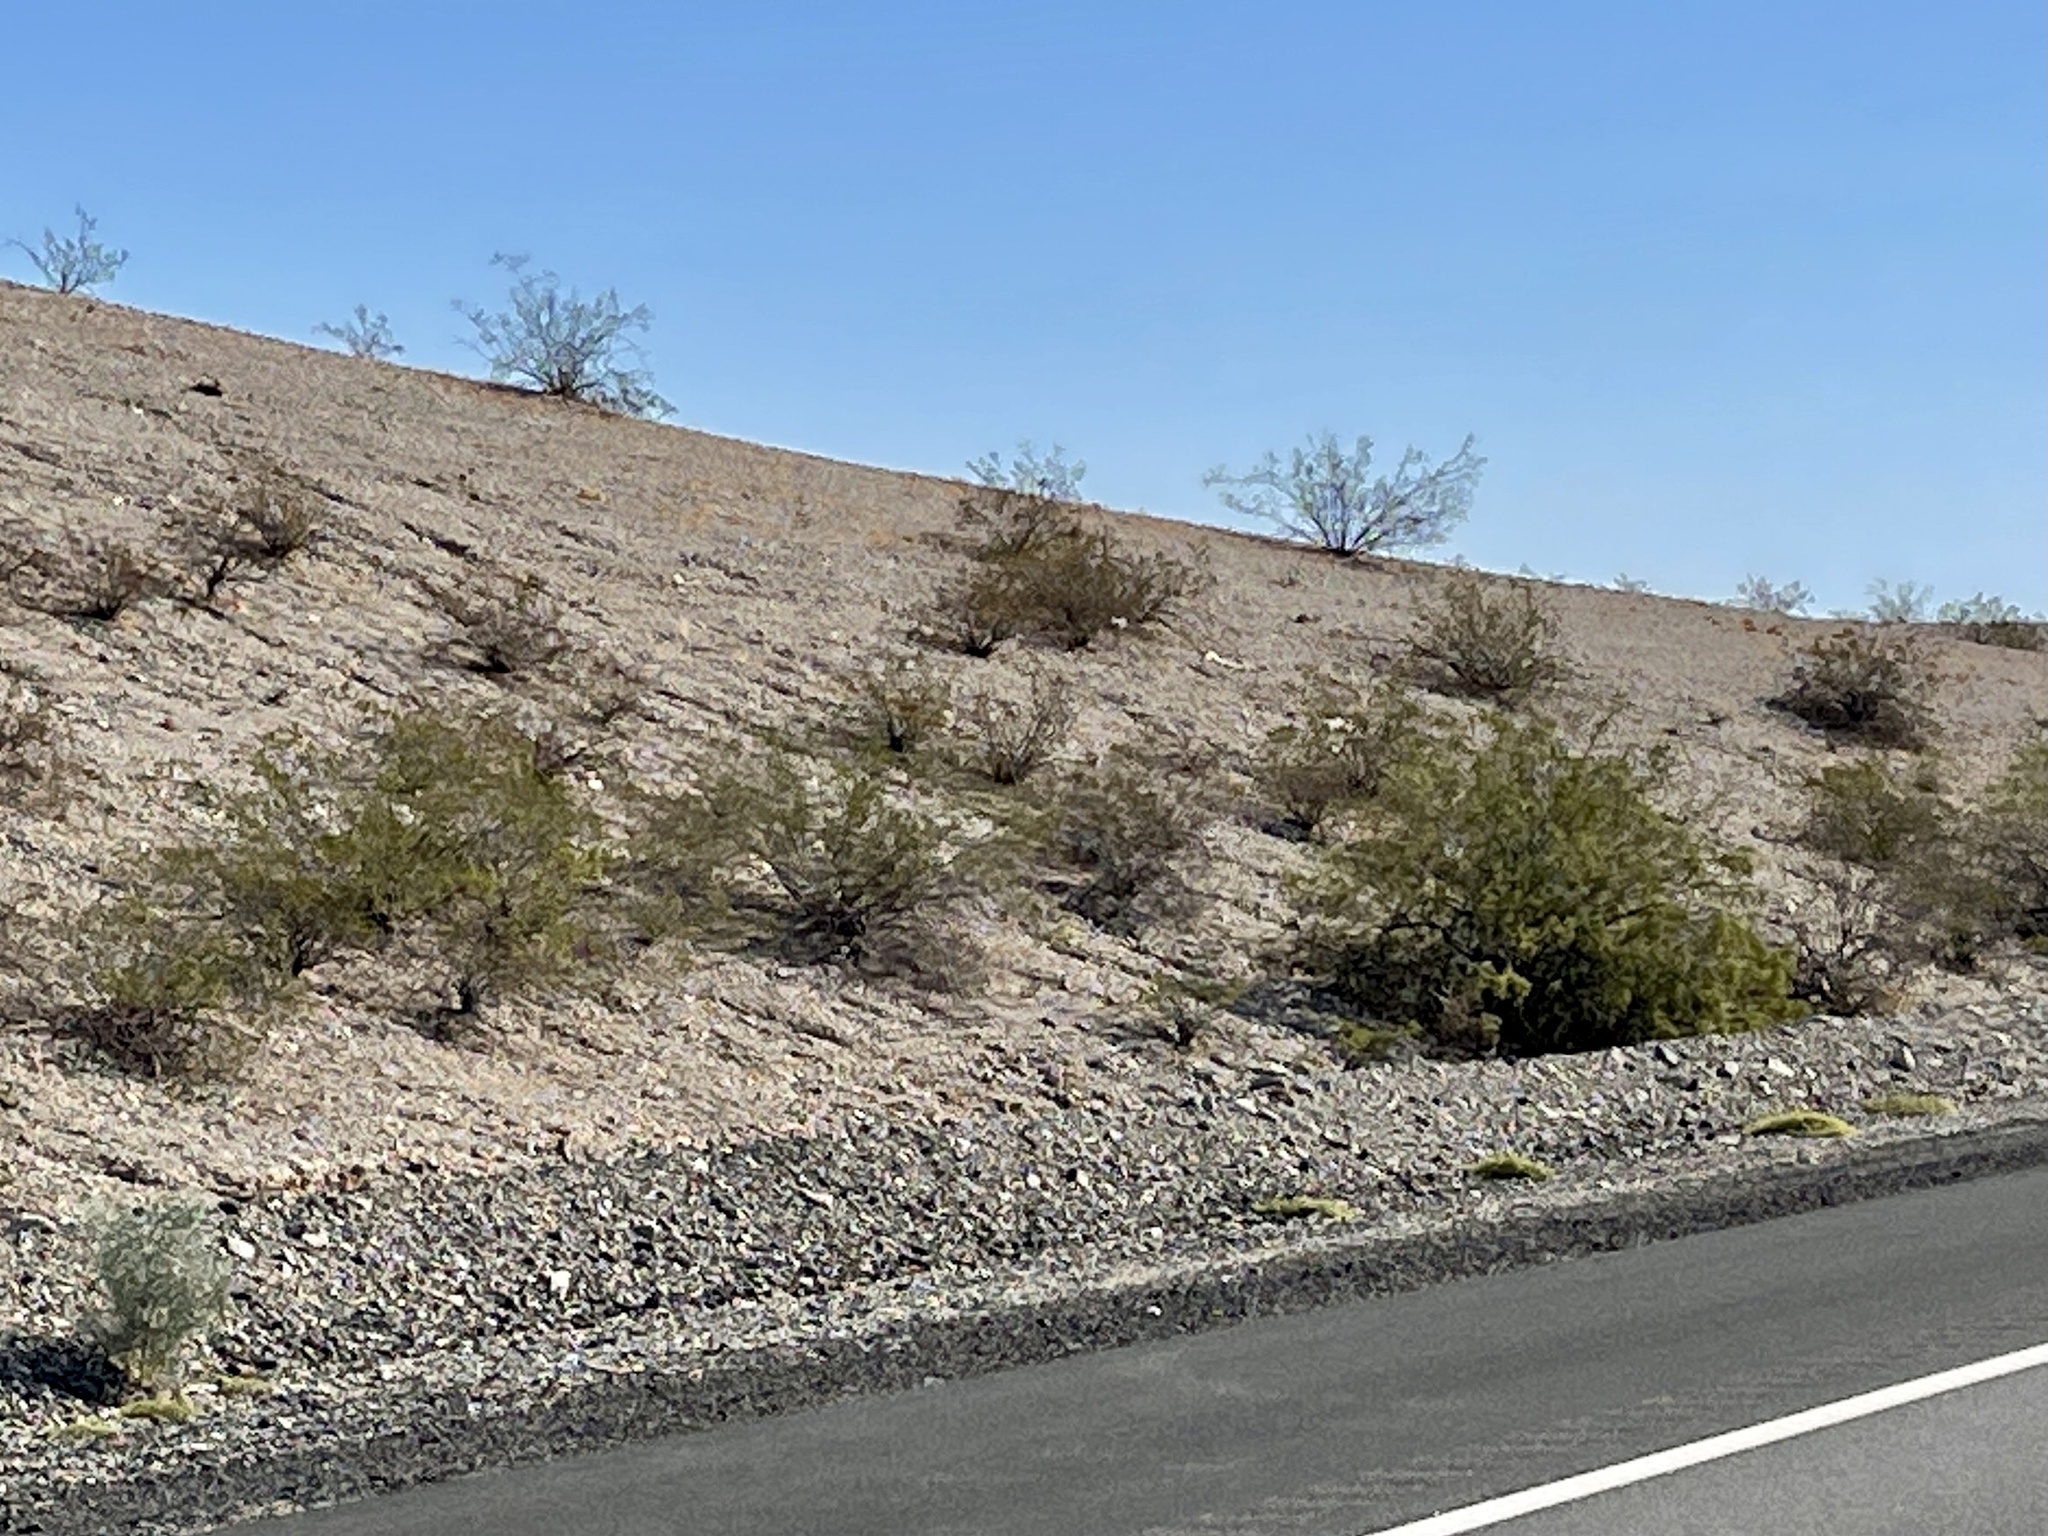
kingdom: Plantae
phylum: Tracheophyta
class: Magnoliopsida
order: Zygophyllales
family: Zygophyllaceae
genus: Larrea
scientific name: Larrea tridentata
